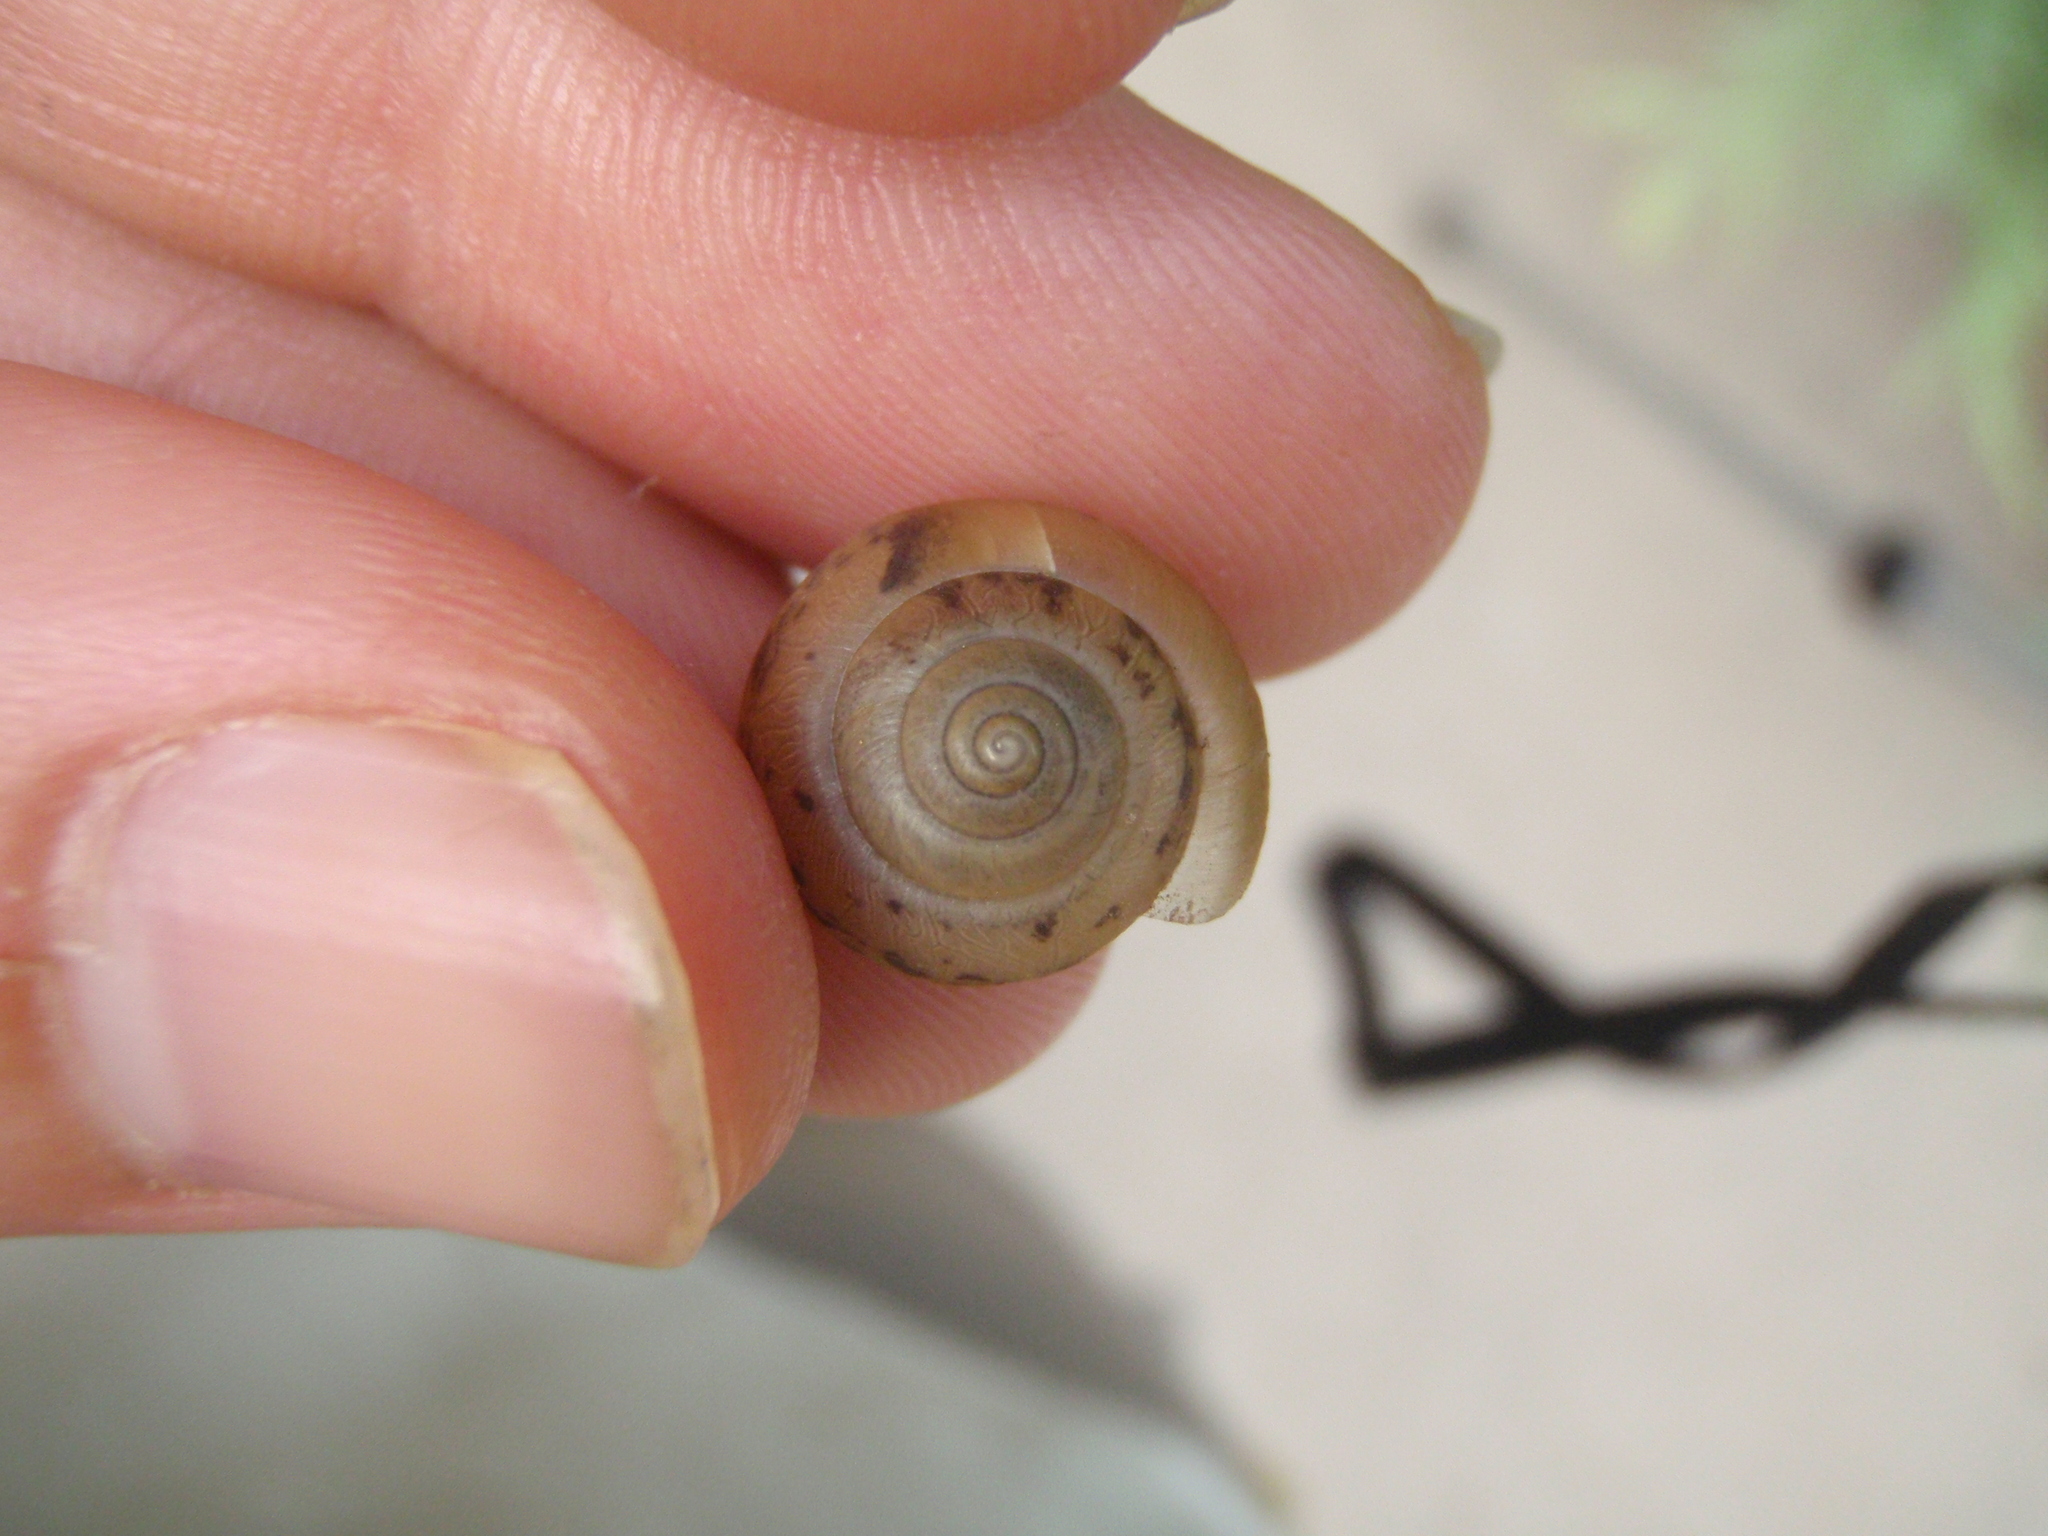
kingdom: Animalia
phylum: Mollusca
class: Gastropoda
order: Stylommatophora
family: Camaenidae
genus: Bradybaena
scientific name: Bradybaena similaris
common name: Asian trampsnail
